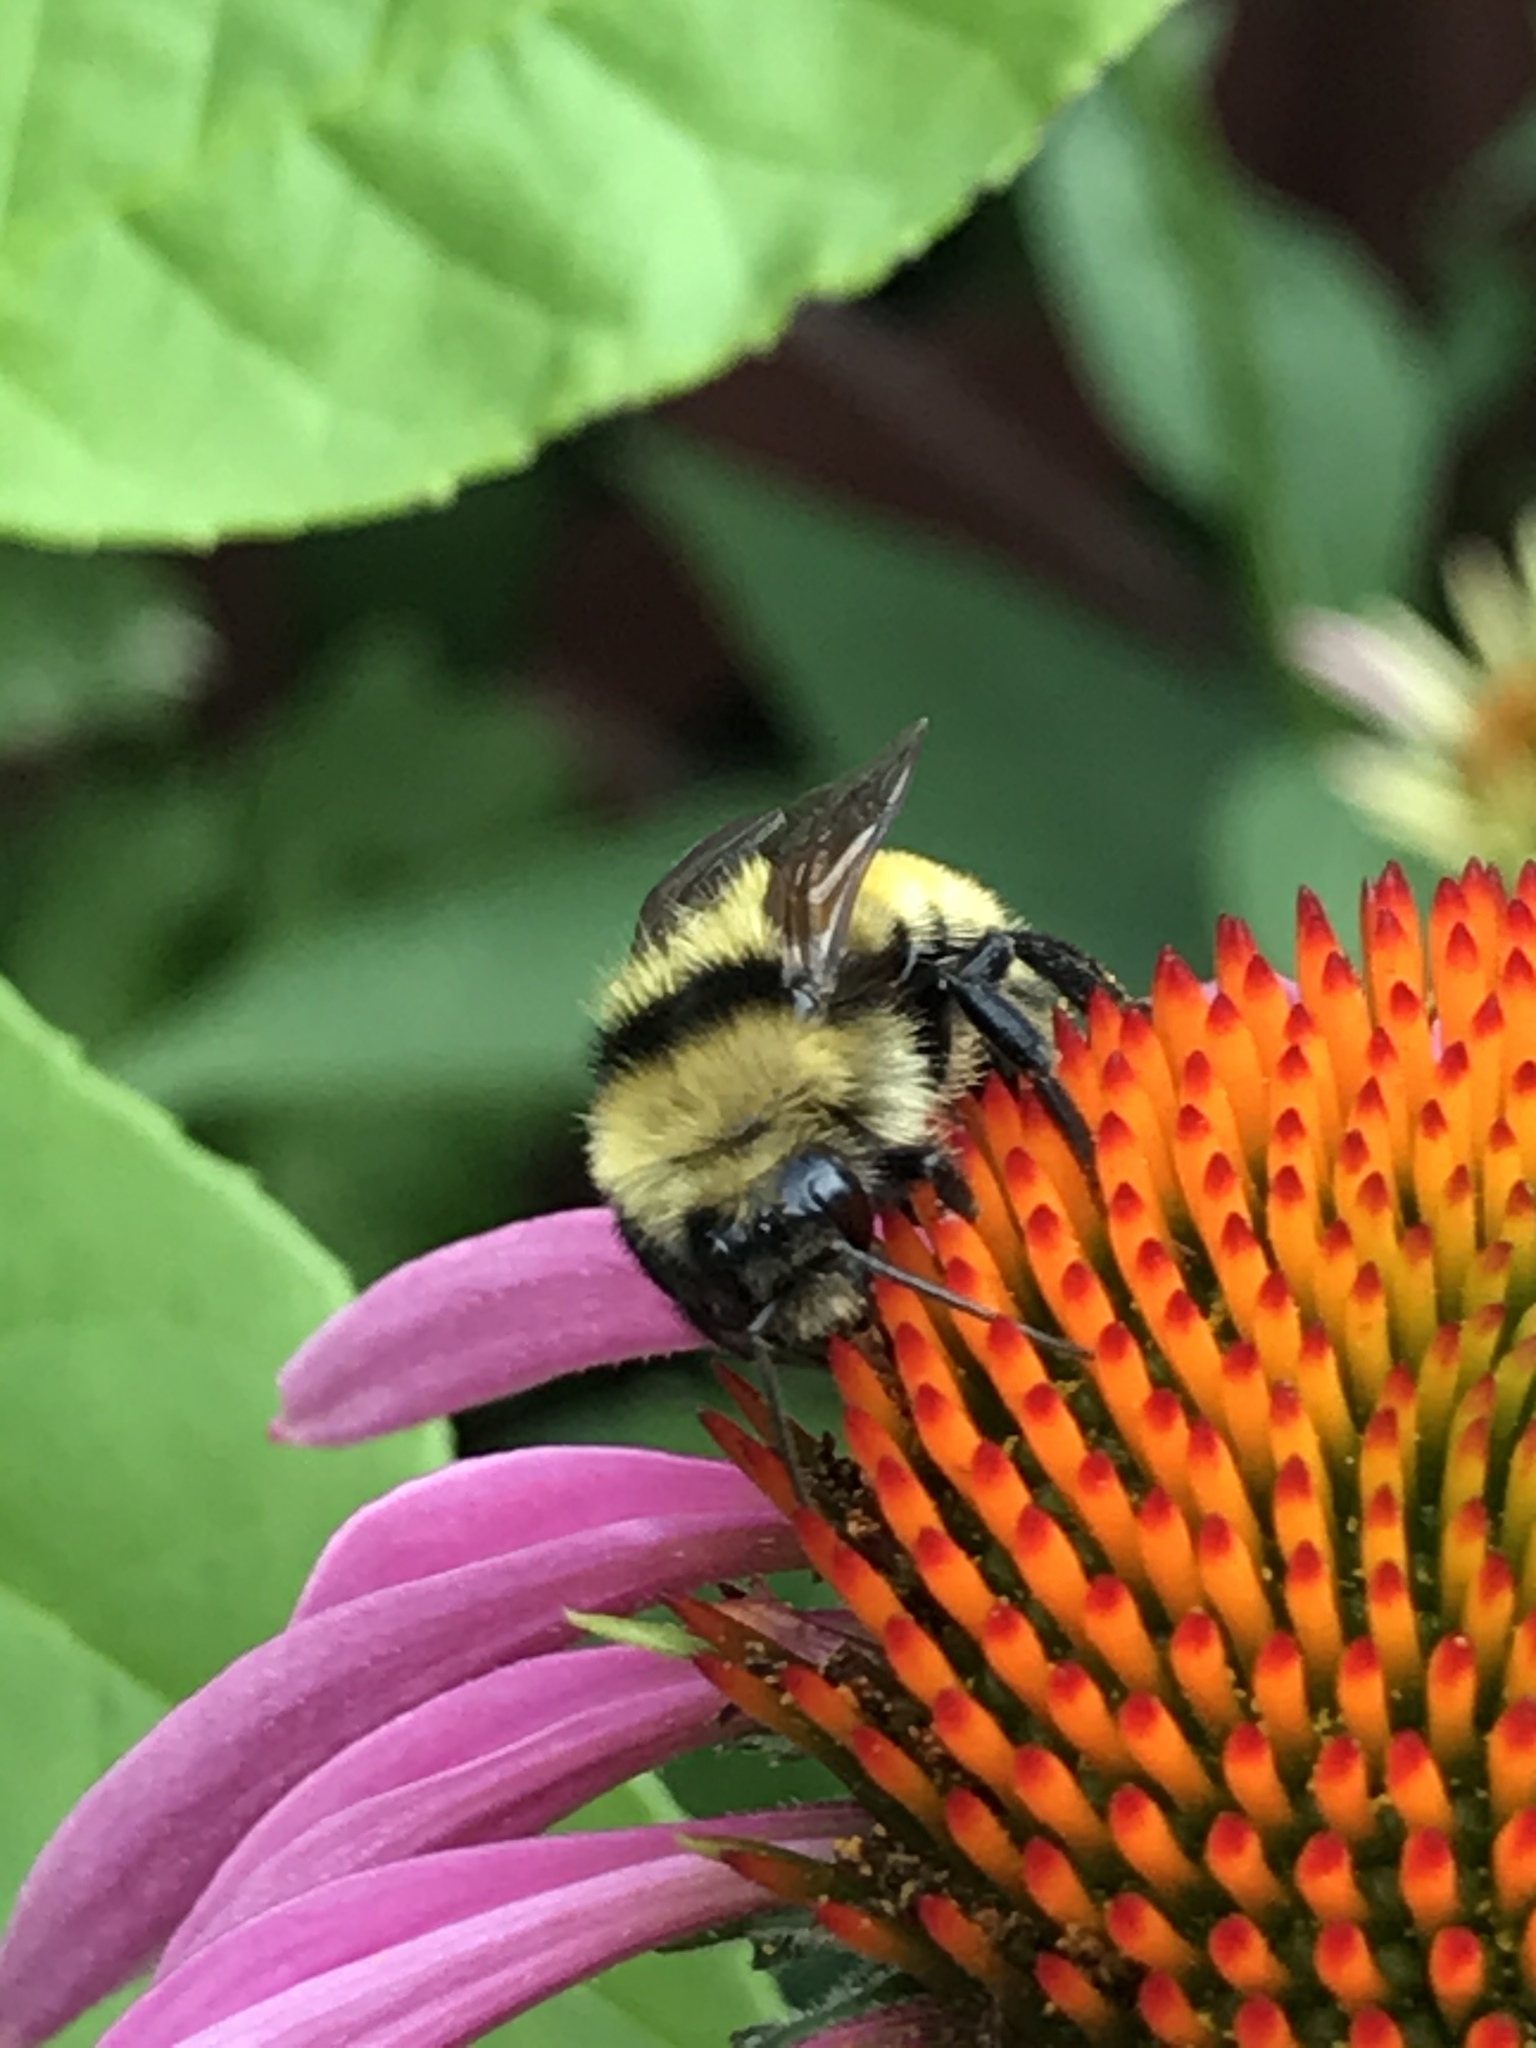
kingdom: Animalia
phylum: Arthropoda
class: Insecta
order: Hymenoptera
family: Apidae
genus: Bombus
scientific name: Bombus borealis
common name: Northern amber bumble bee
